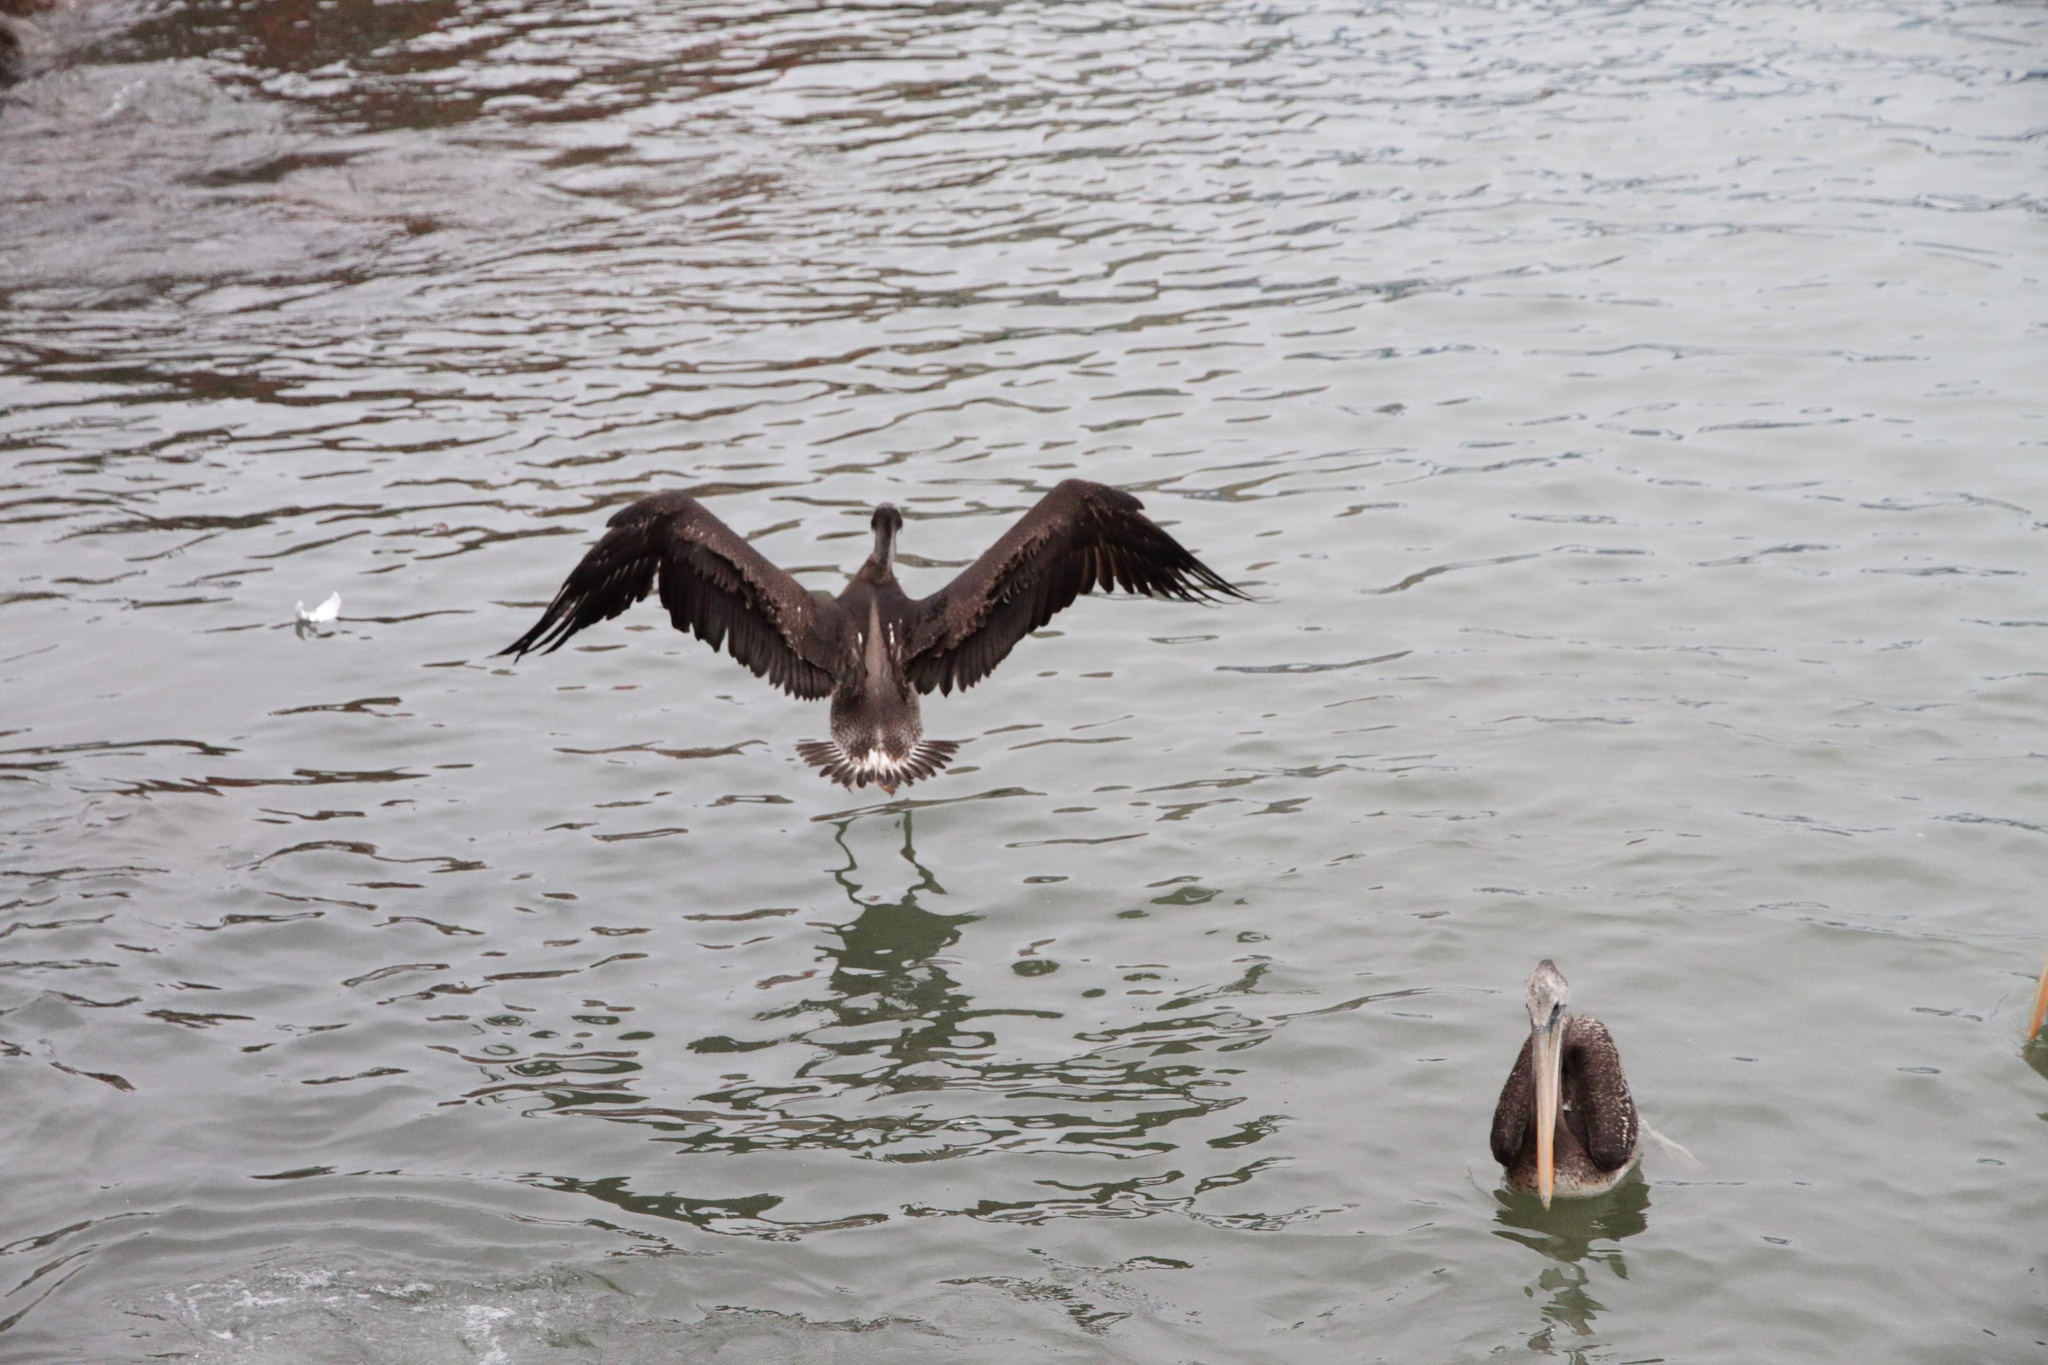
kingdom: Animalia
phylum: Chordata
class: Aves
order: Pelecaniformes
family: Pelecanidae
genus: Pelecanus
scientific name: Pelecanus thagus
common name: Peruvian pelican
